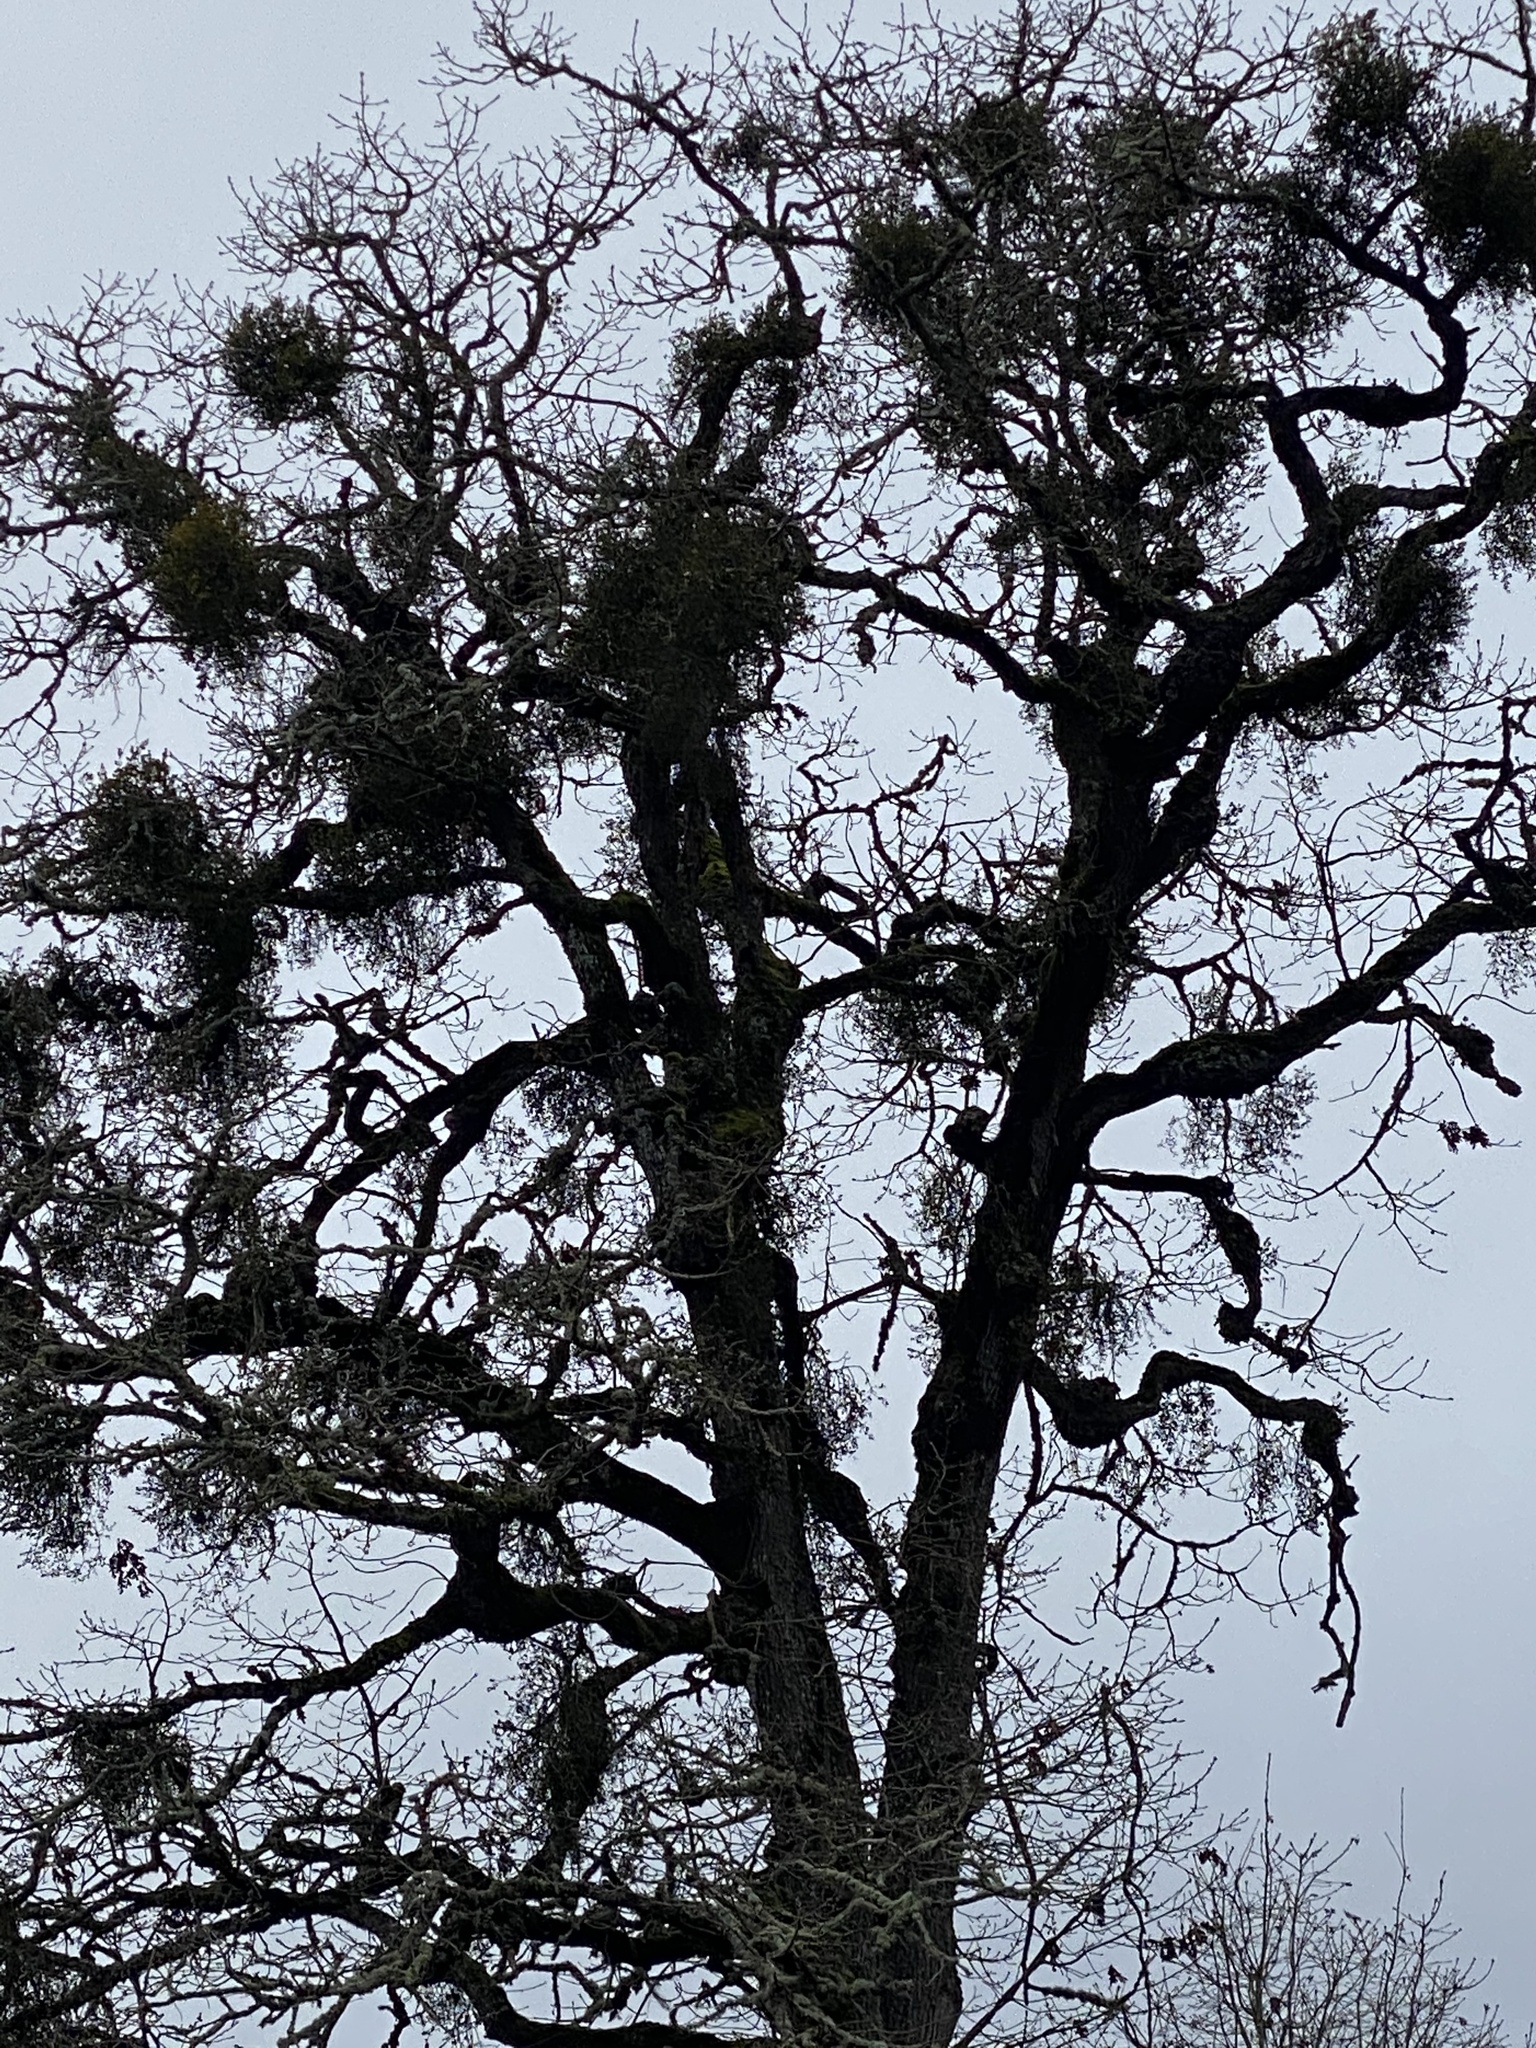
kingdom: Plantae
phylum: Tracheophyta
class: Magnoliopsida
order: Santalales
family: Viscaceae
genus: Phoradendron
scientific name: Phoradendron leucarpum
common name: Pacific mistletoe
